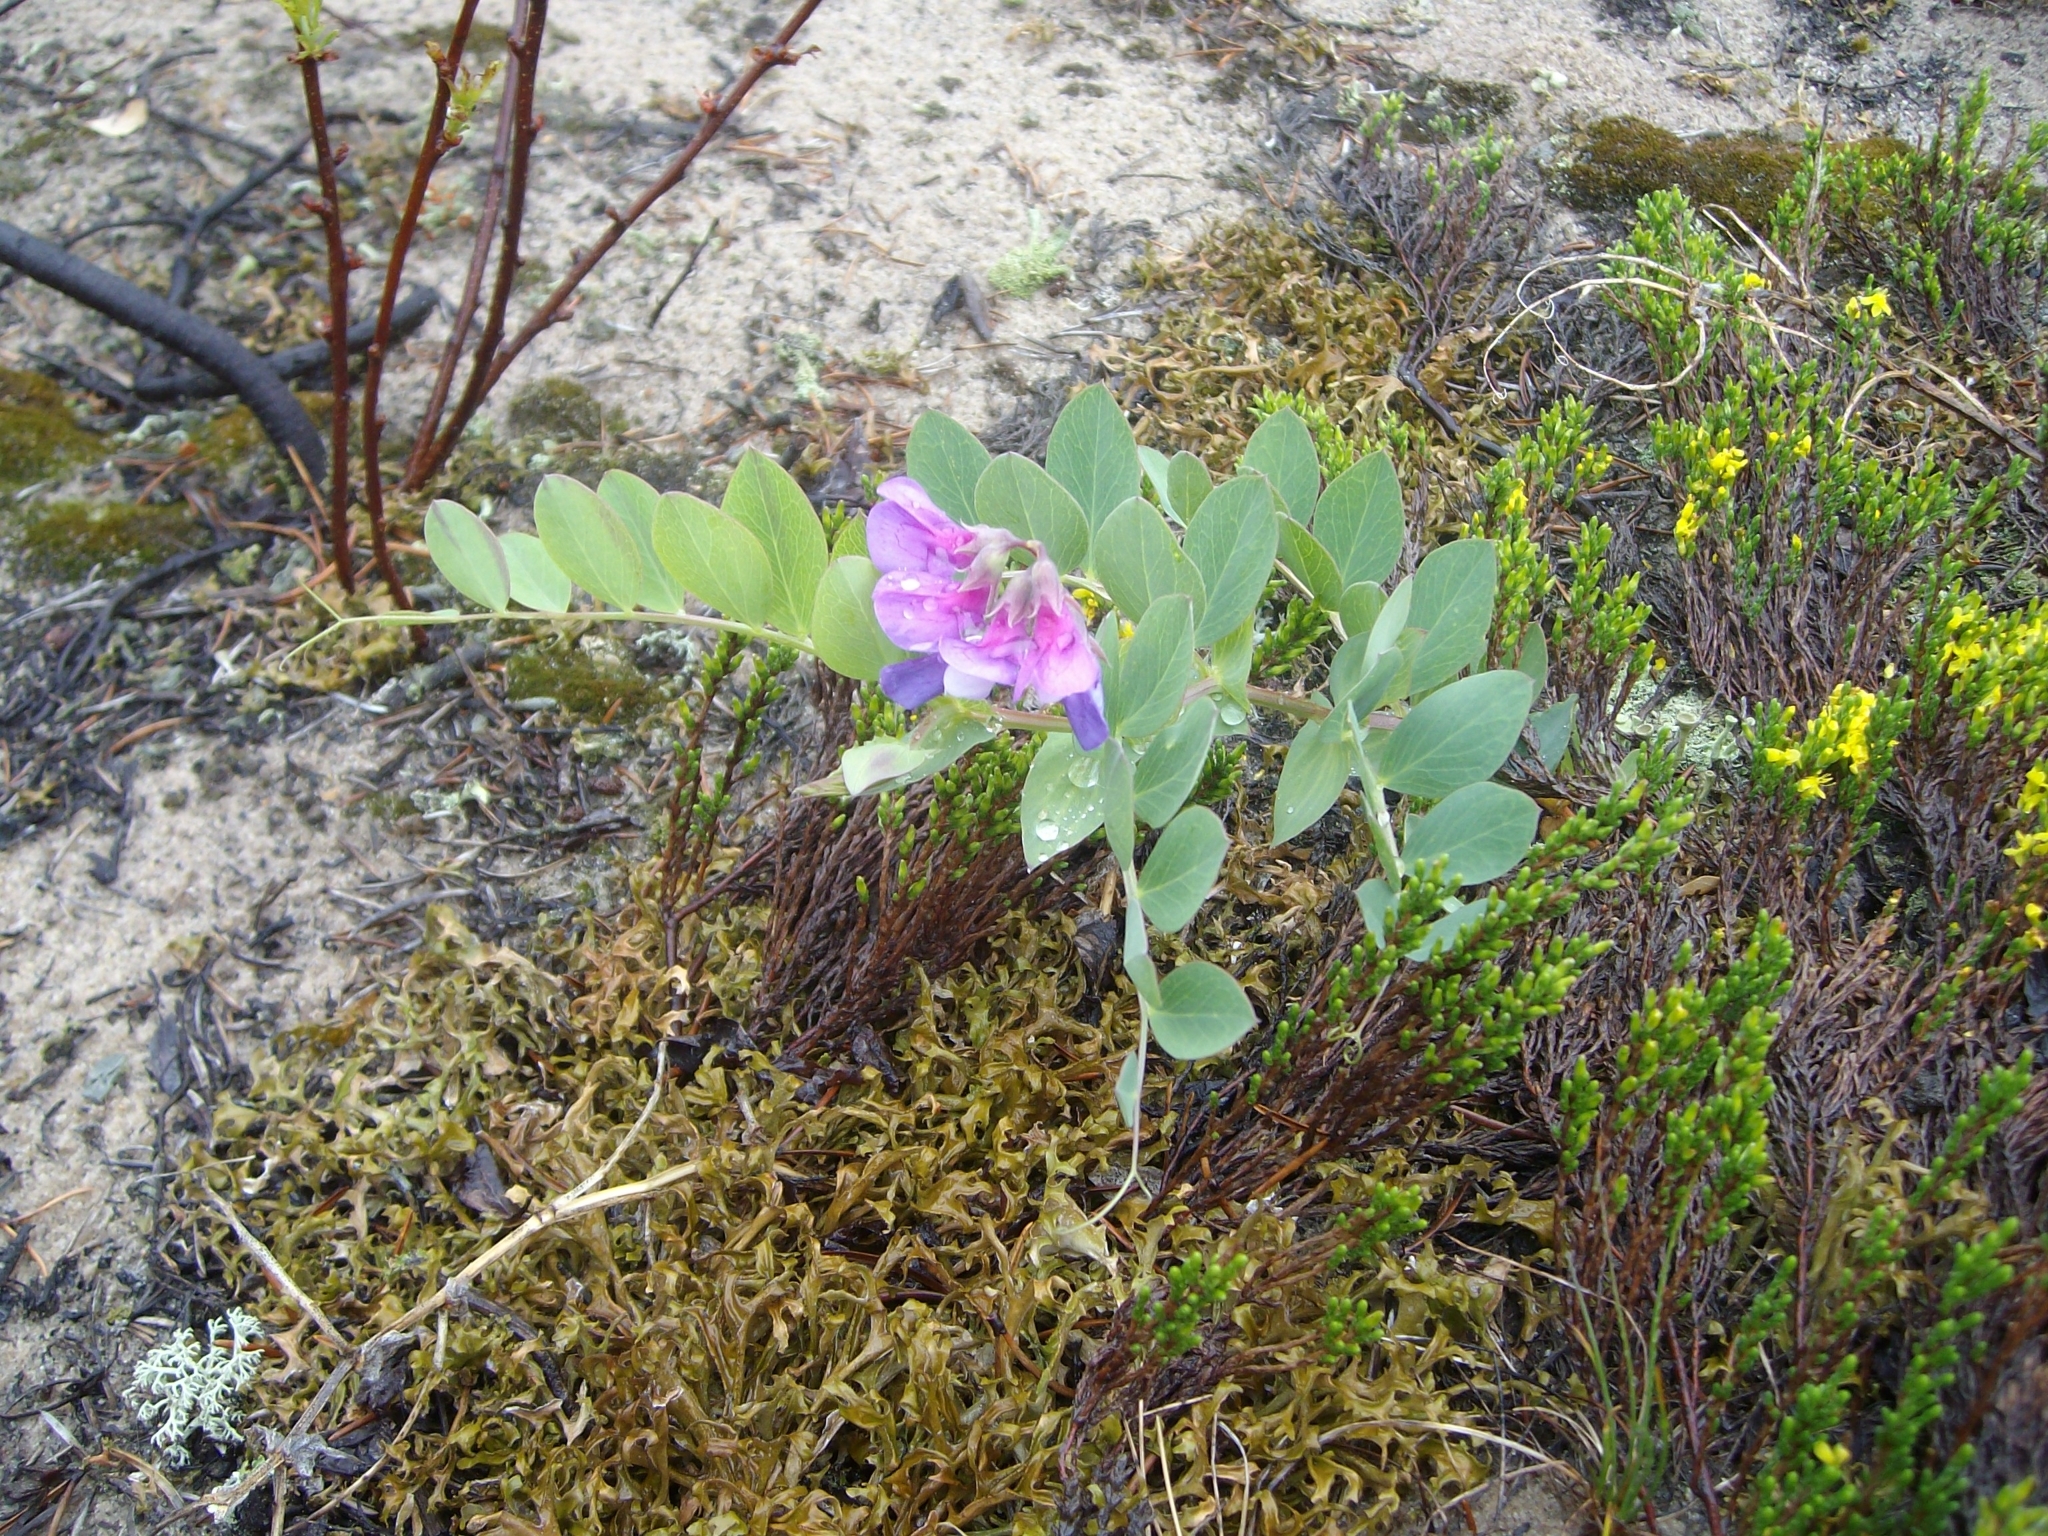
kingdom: Plantae
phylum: Tracheophyta
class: Magnoliopsida
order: Fabales
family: Fabaceae
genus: Lathyrus
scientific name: Lathyrus japonicus
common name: Sea pea
